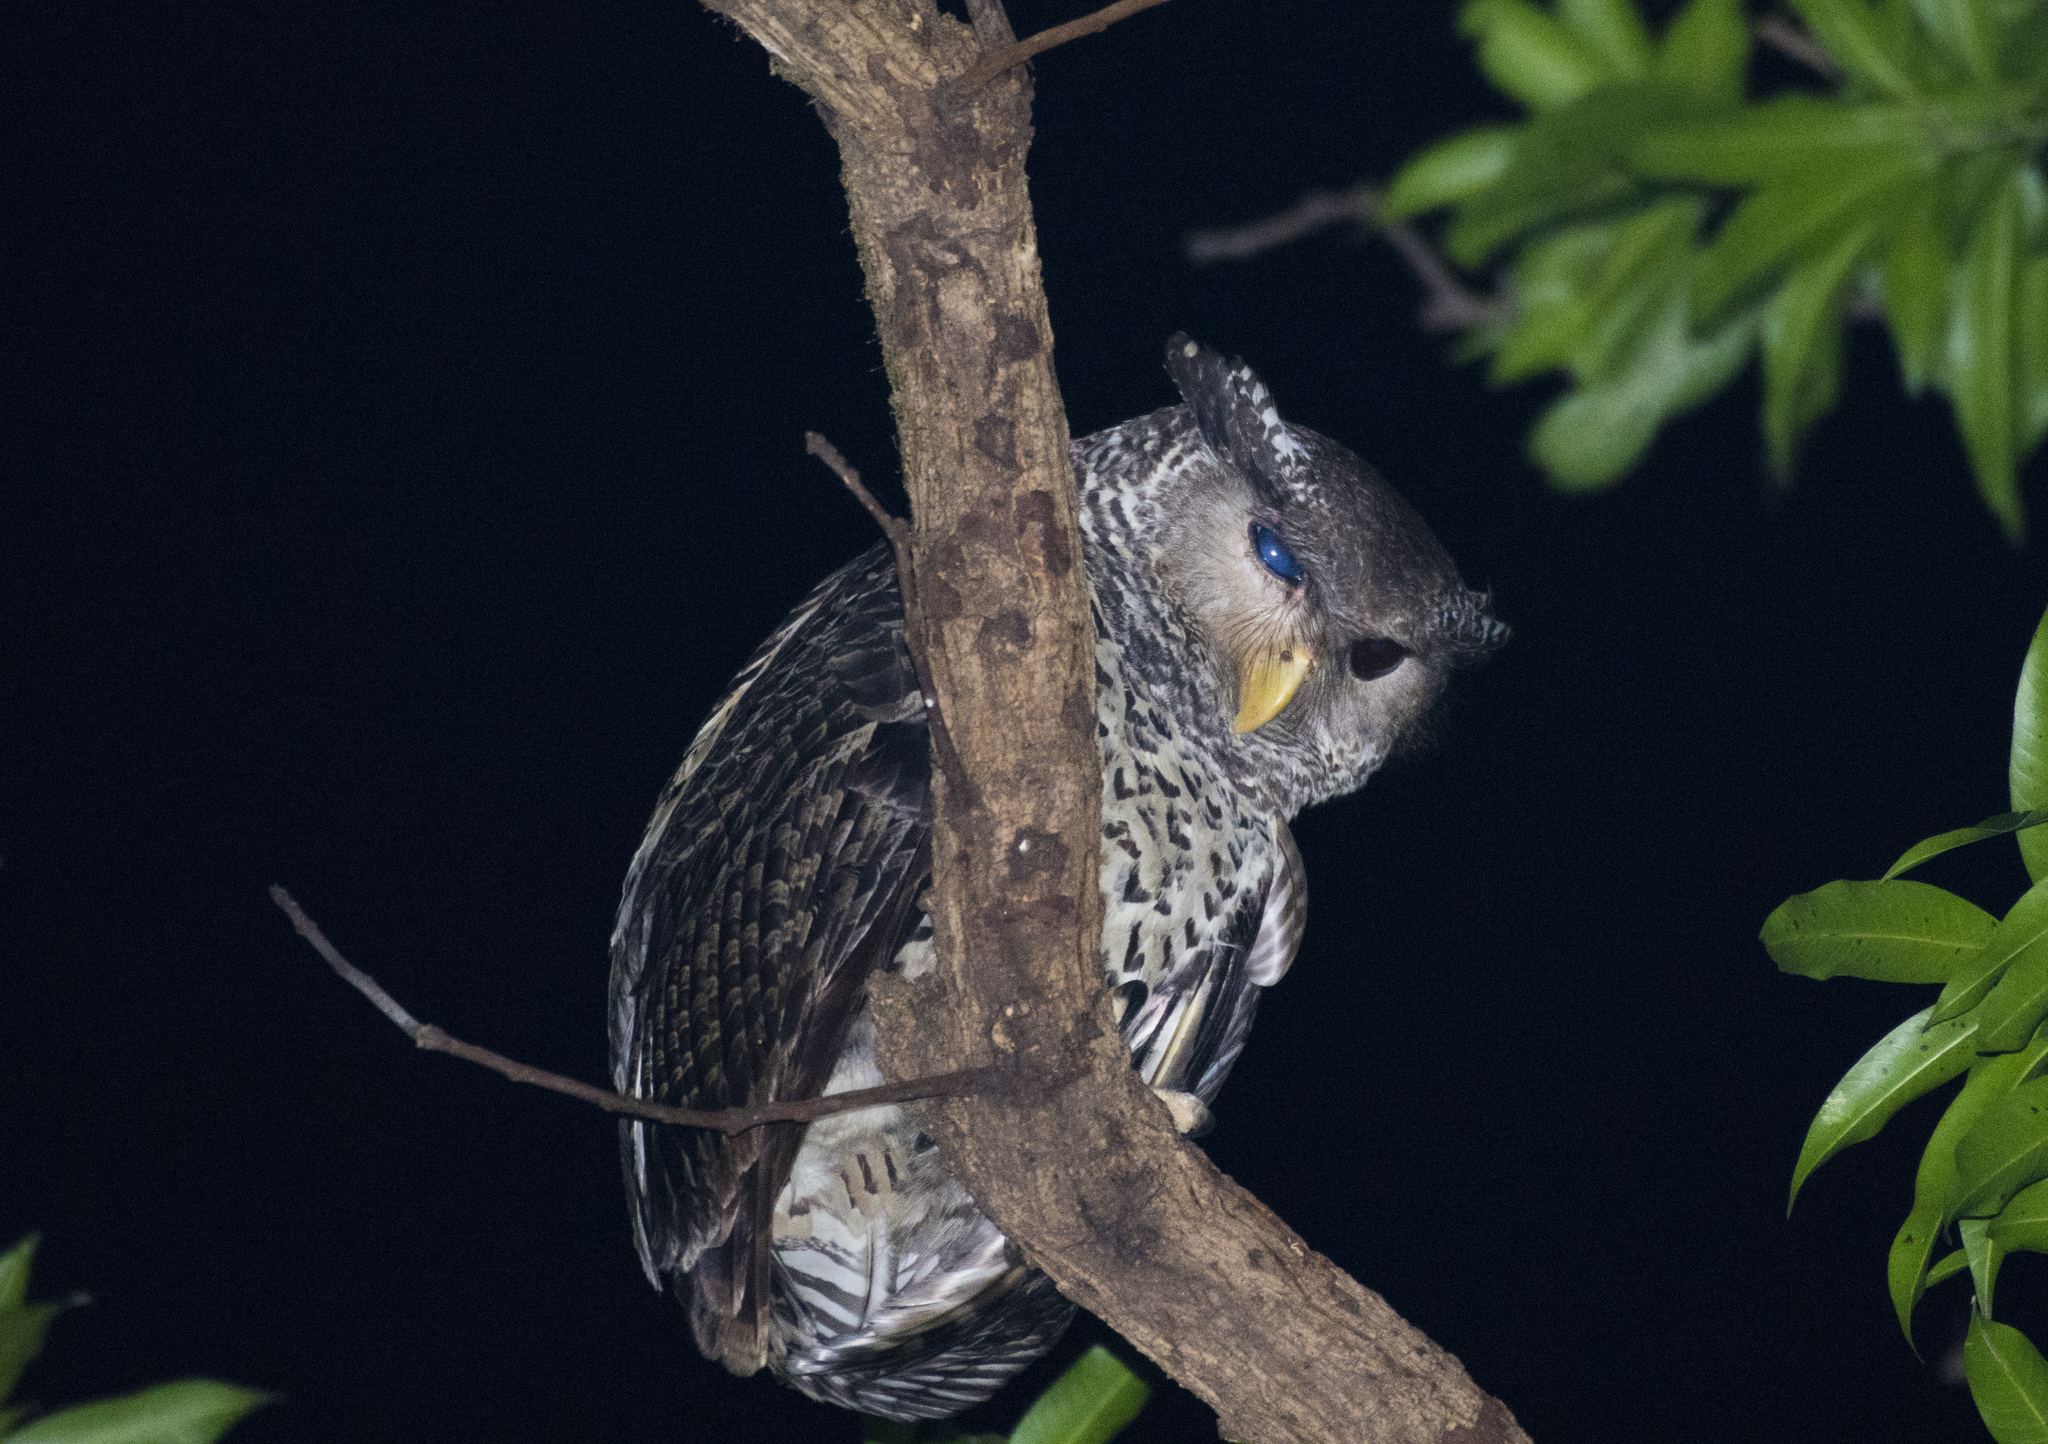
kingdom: Animalia
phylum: Chordata
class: Aves
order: Strigiformes
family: Strigidae
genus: Ketupa
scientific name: Ketupa nipalensis
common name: Spot-bellied eagle-owl
